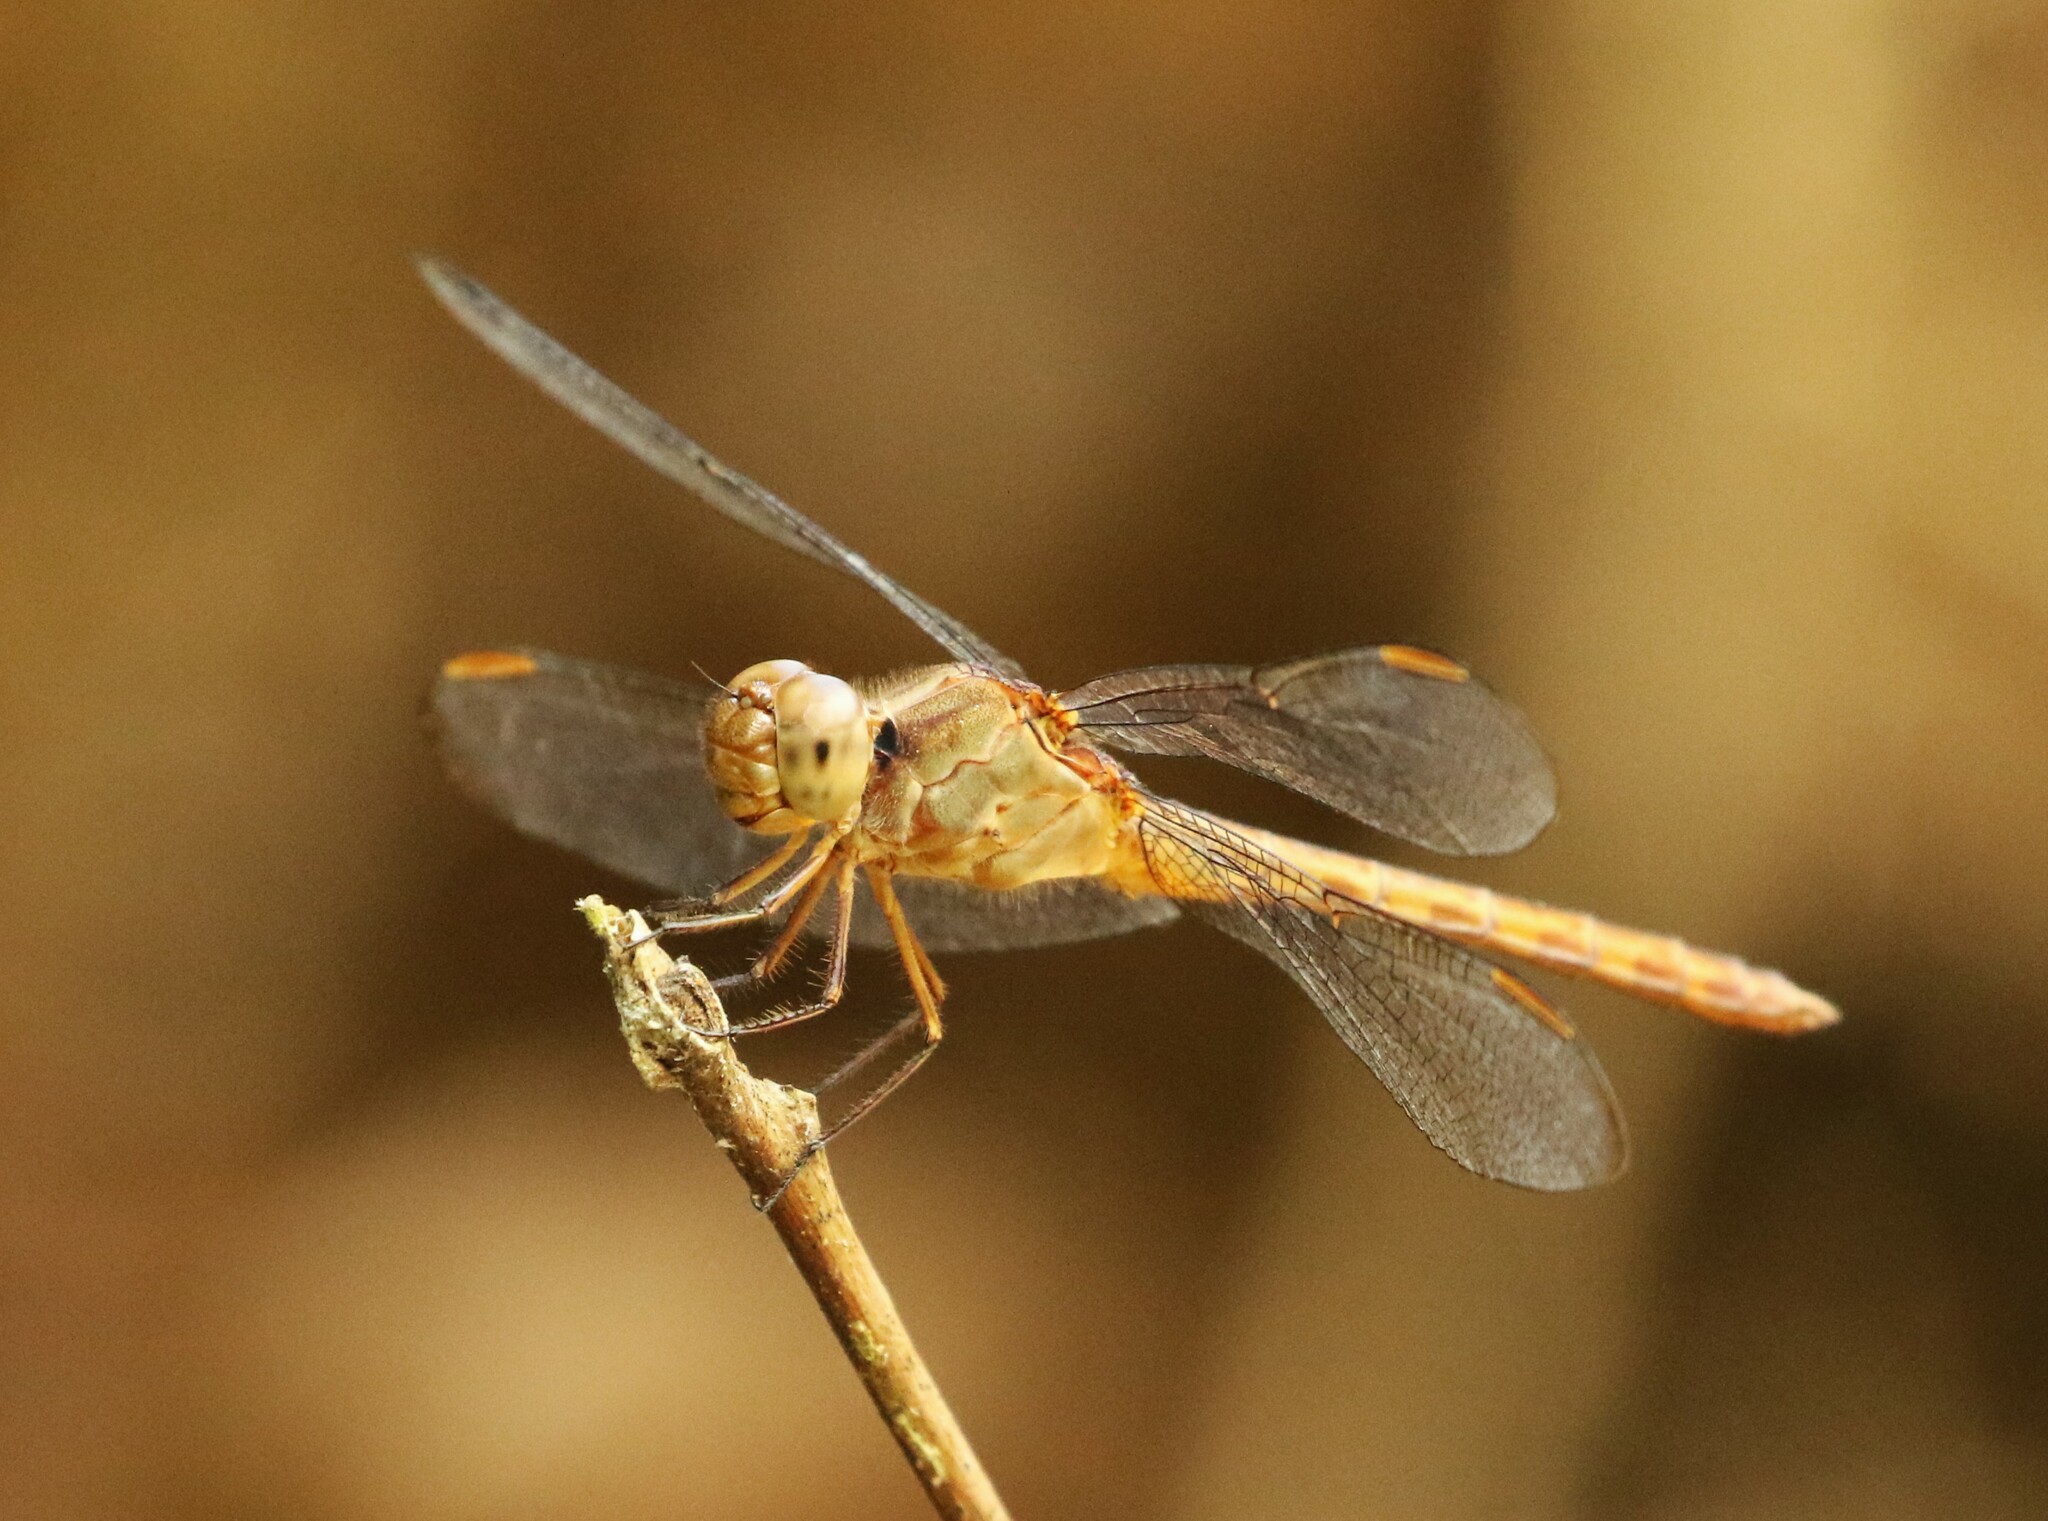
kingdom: Animalia
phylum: Arthropoda
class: Insecta
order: Odonata
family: Libellulidae
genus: Erythrodiplax
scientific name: Erythrodiplax funerea
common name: Black-winged dragonlet
